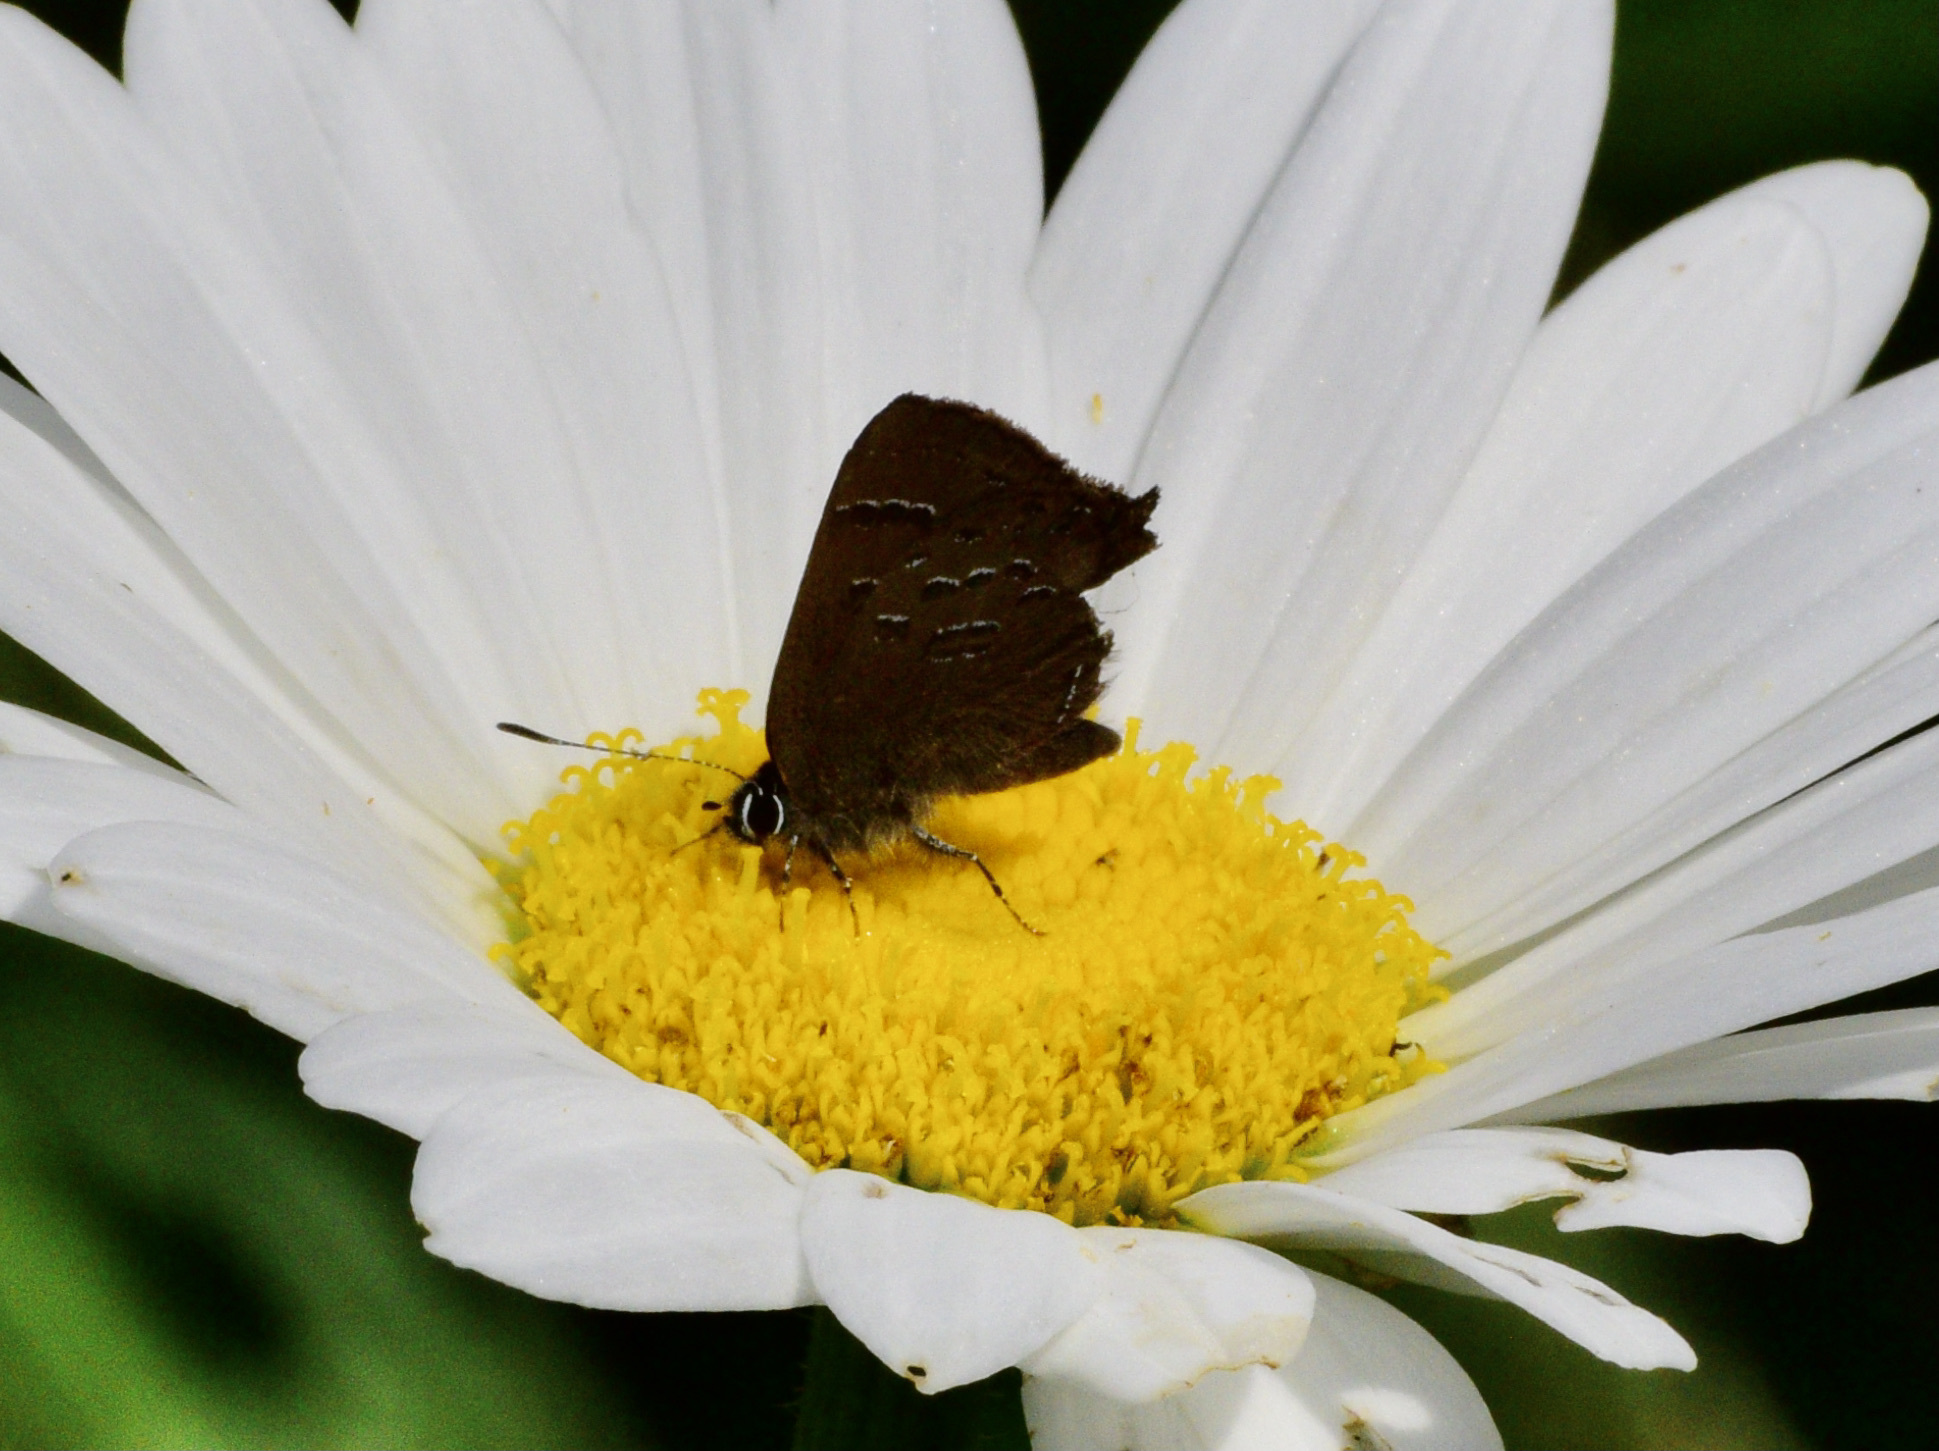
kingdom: Animalia
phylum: Arthropoda
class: Insecta
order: Lepidoptera
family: Lycaenidae
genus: Satyrium
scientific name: Satyrium calanus
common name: Banded hairstreak
